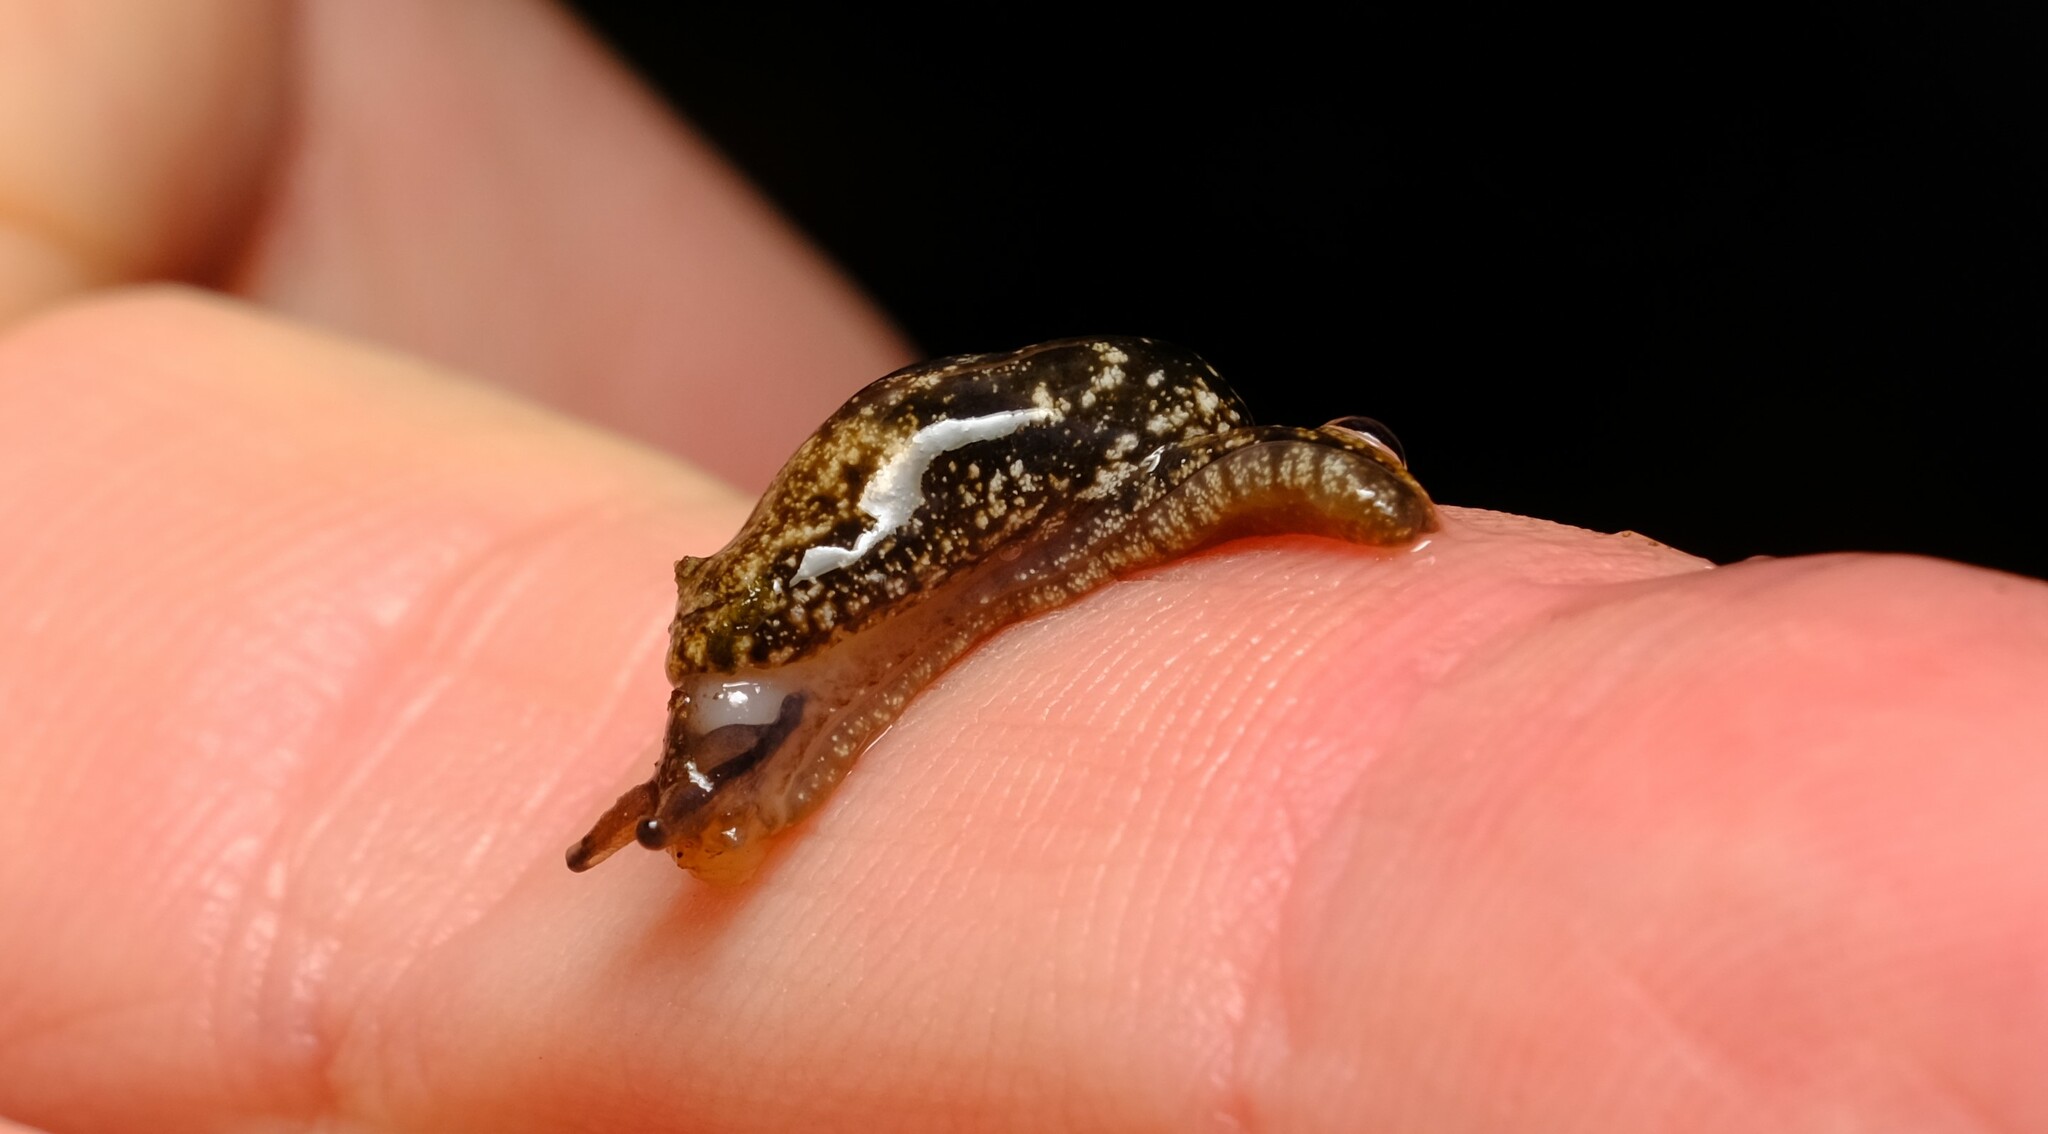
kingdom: Animalia
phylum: Mollusca
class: Gastropoda
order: Stylommatophora
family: Cystopeltidae
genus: Cystopelta
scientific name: Cystopelta
